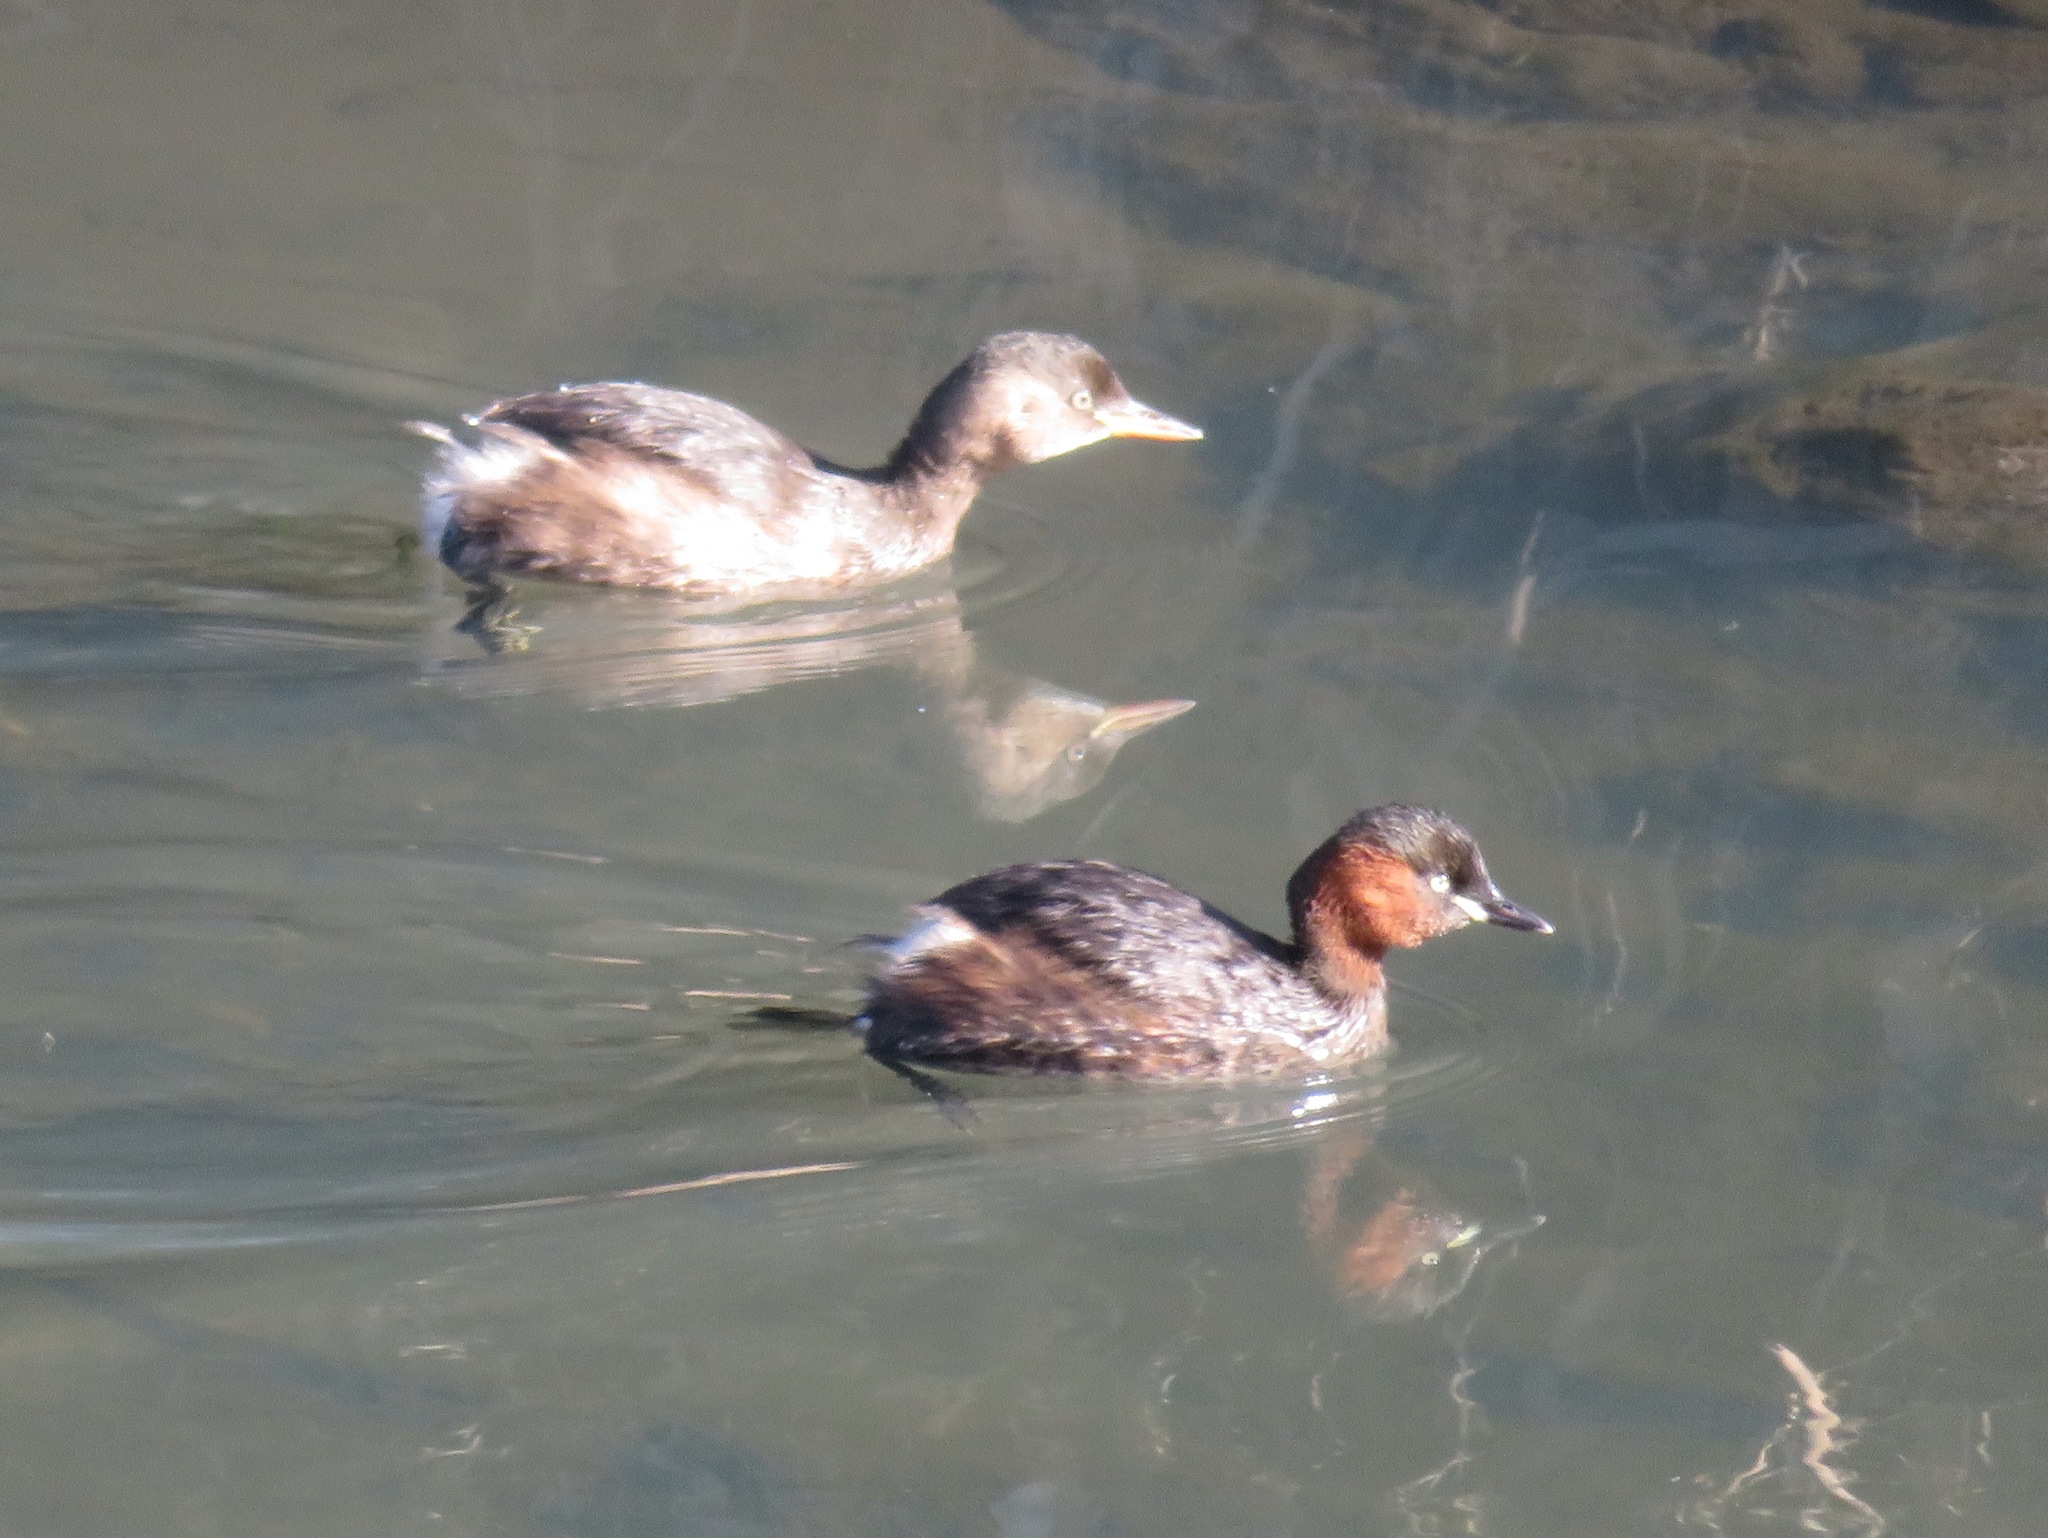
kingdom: Animalia
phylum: Chordata
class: Aves
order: Podicipediformes
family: Podicipedidae
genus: Tachybaptus
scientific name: Tachybaptus ruficollis
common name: Little grebe
